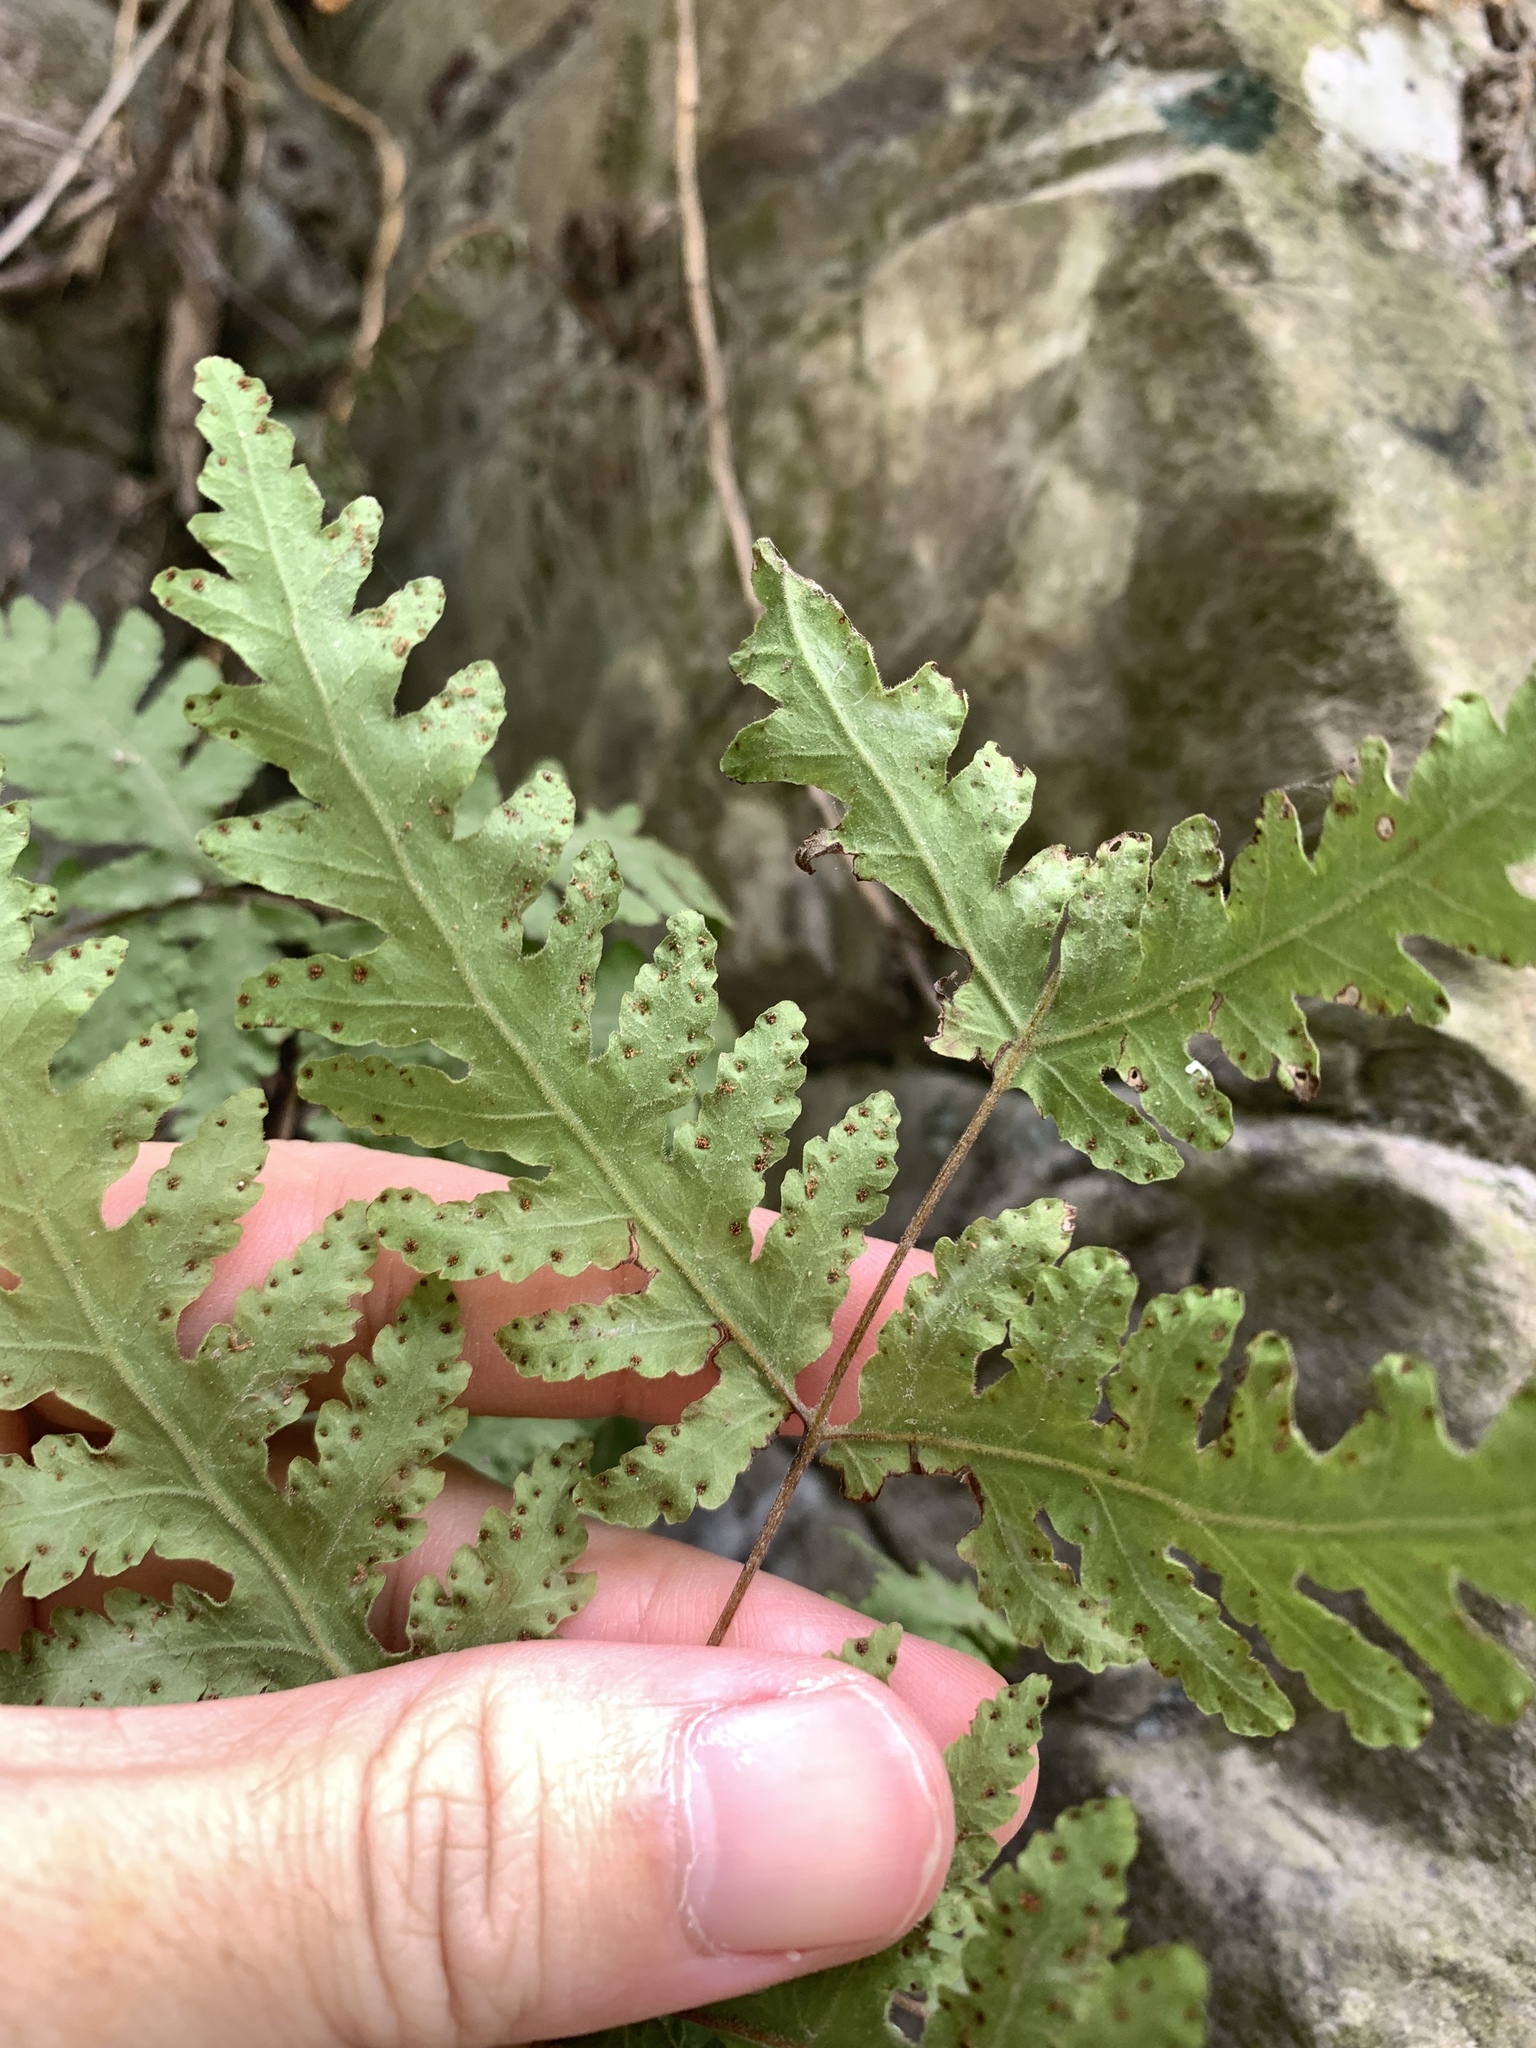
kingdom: Plantae
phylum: Tracheophyta
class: Polypodiopsida
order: Polypodiales
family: Tectariaceae
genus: Tectaria
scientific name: Tectaria membranacea
